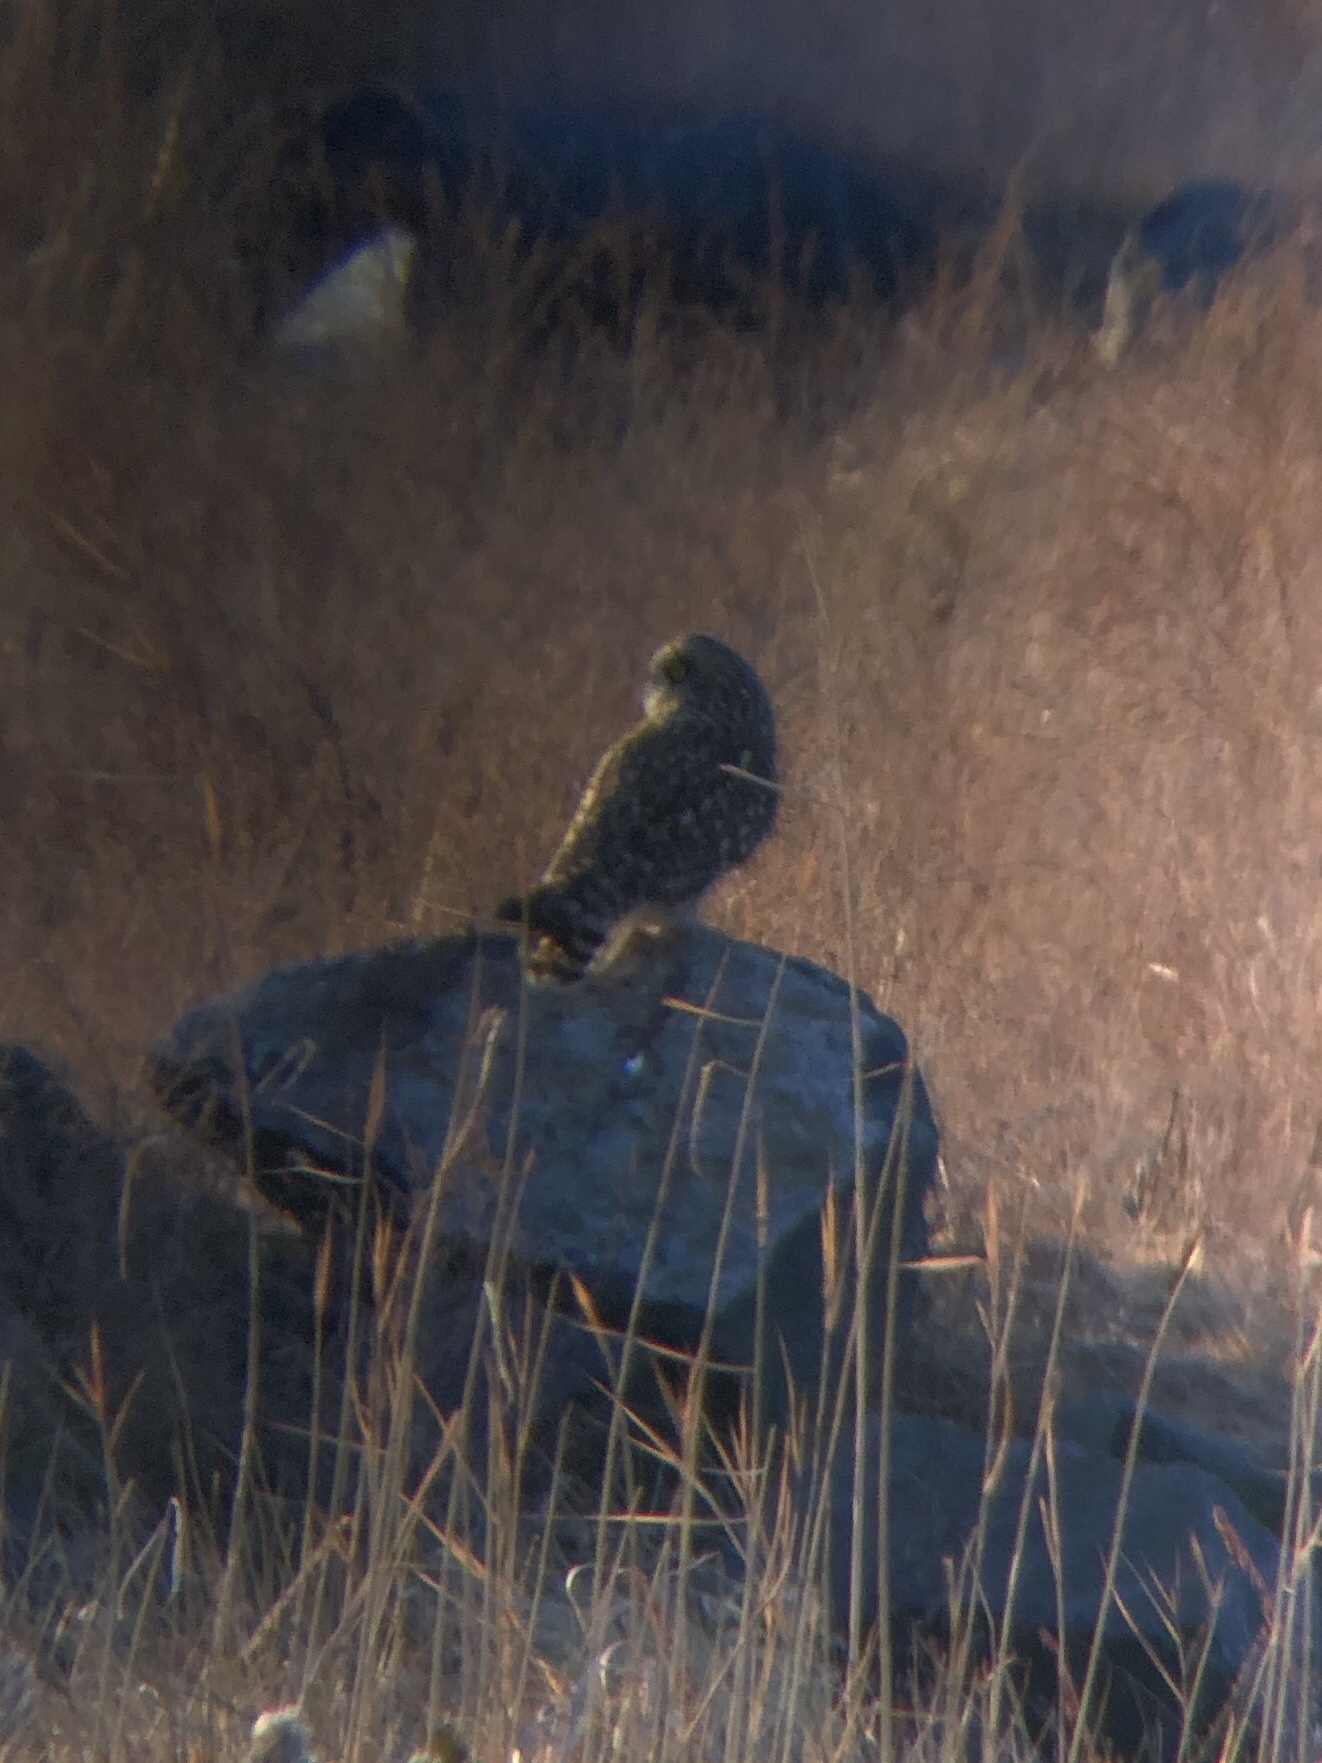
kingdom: Animalia
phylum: Chordata
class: Aves
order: Strigiformes
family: Strigidae
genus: Asio
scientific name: Asio flammeus
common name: Short-eared owl
